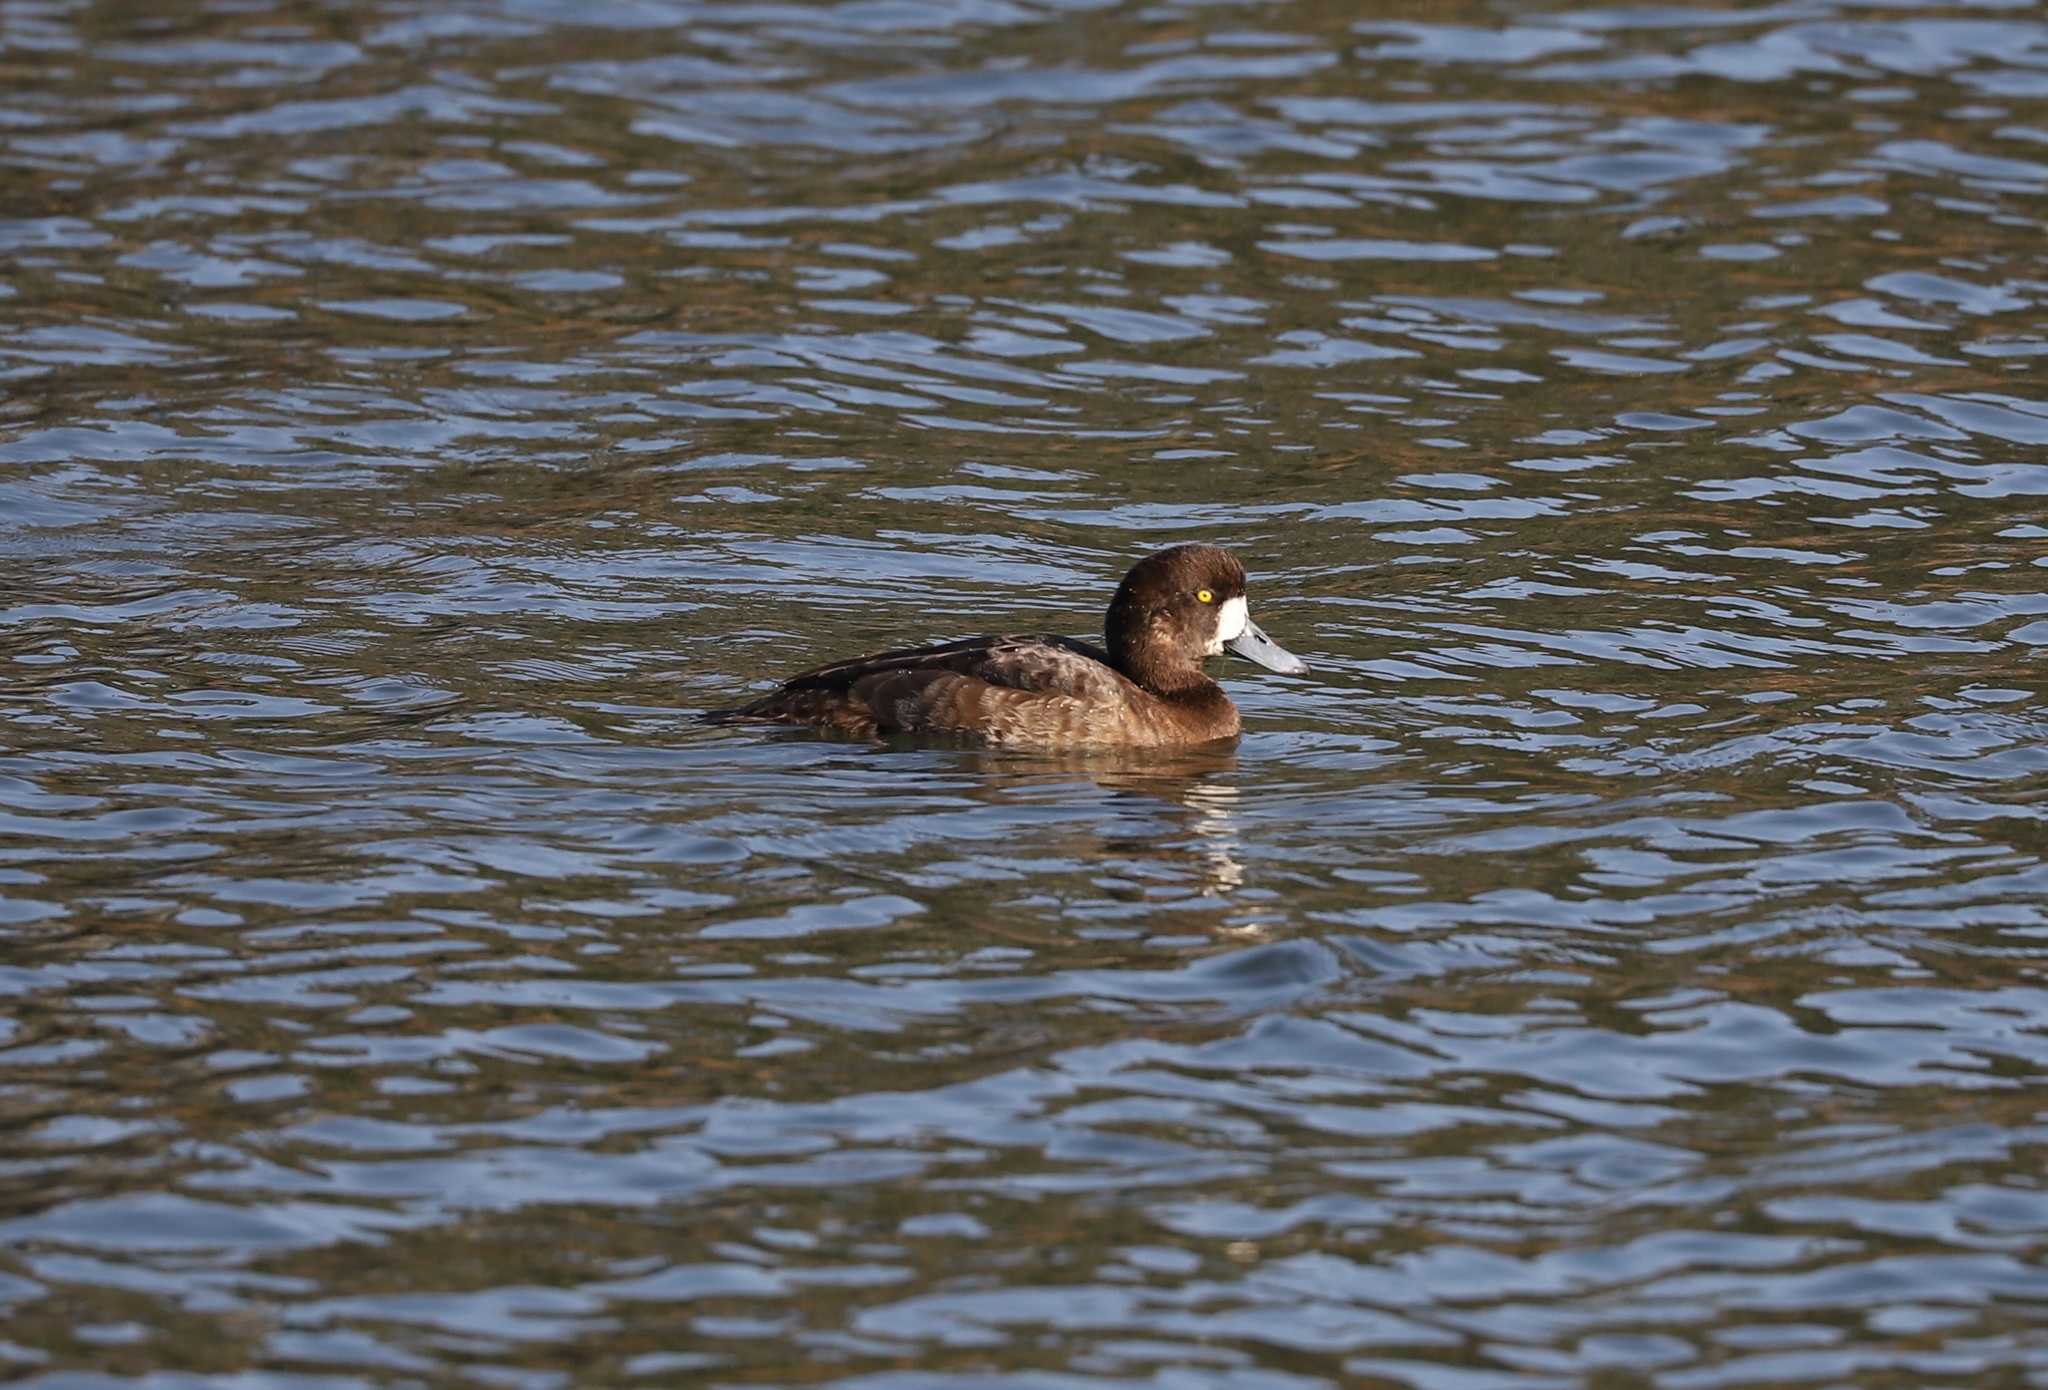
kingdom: Animalia
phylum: Chordata
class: Aves
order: Anseriformes
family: Anatidae
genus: Aythya
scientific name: Aythya marila
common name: Greater scaup
